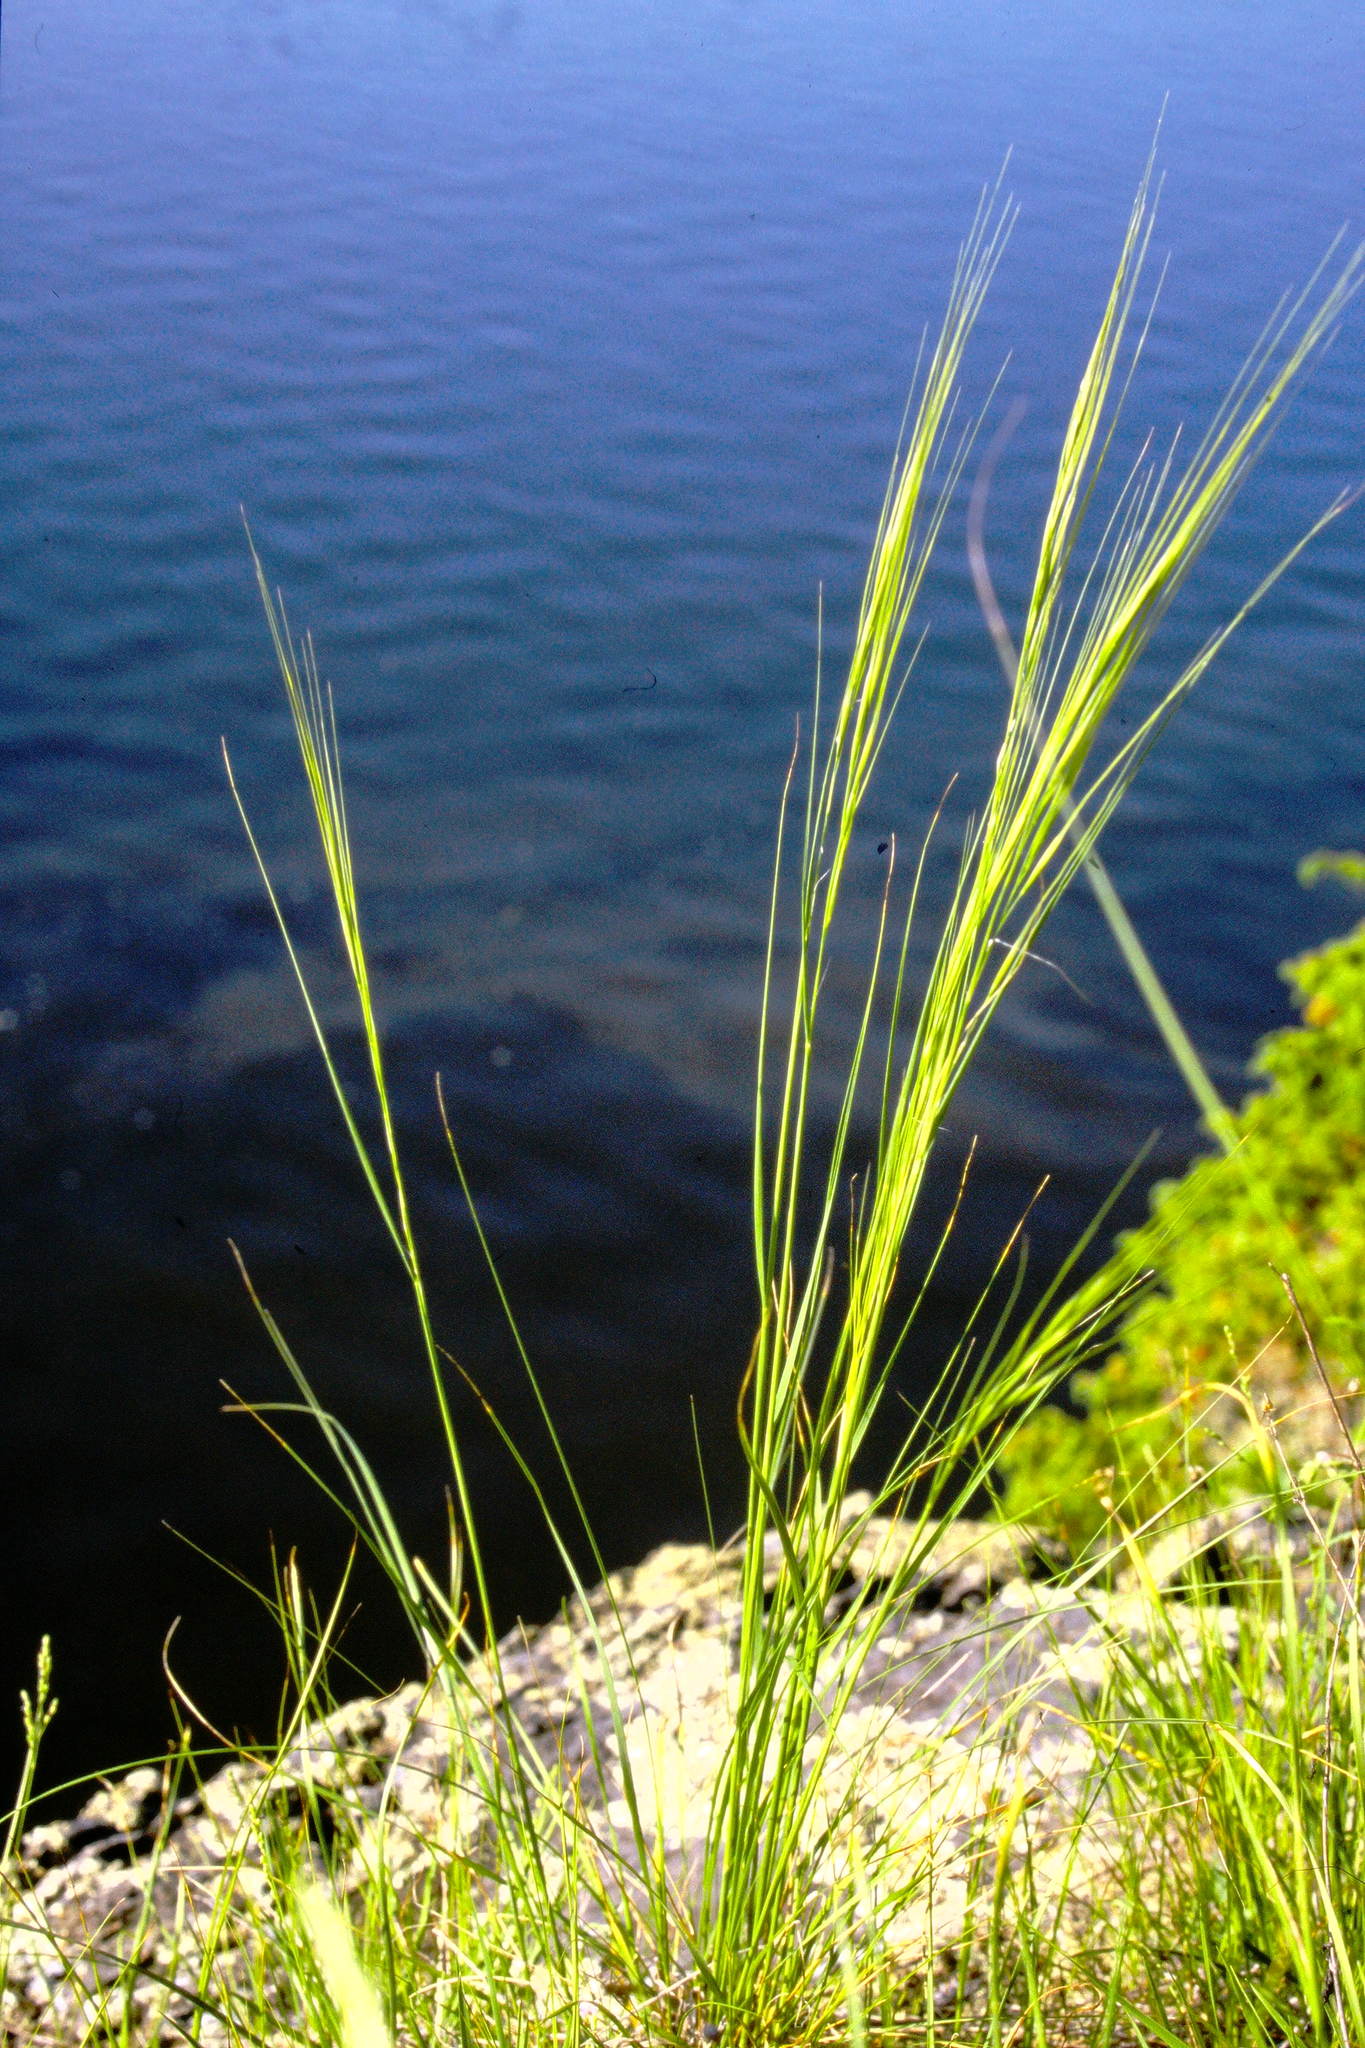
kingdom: Plantae
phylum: Tracheophyta
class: Liliopsida
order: Poales
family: Poaceae
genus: Hesperostipa
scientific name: Hesperostipa spartea
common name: Porcupine grass
